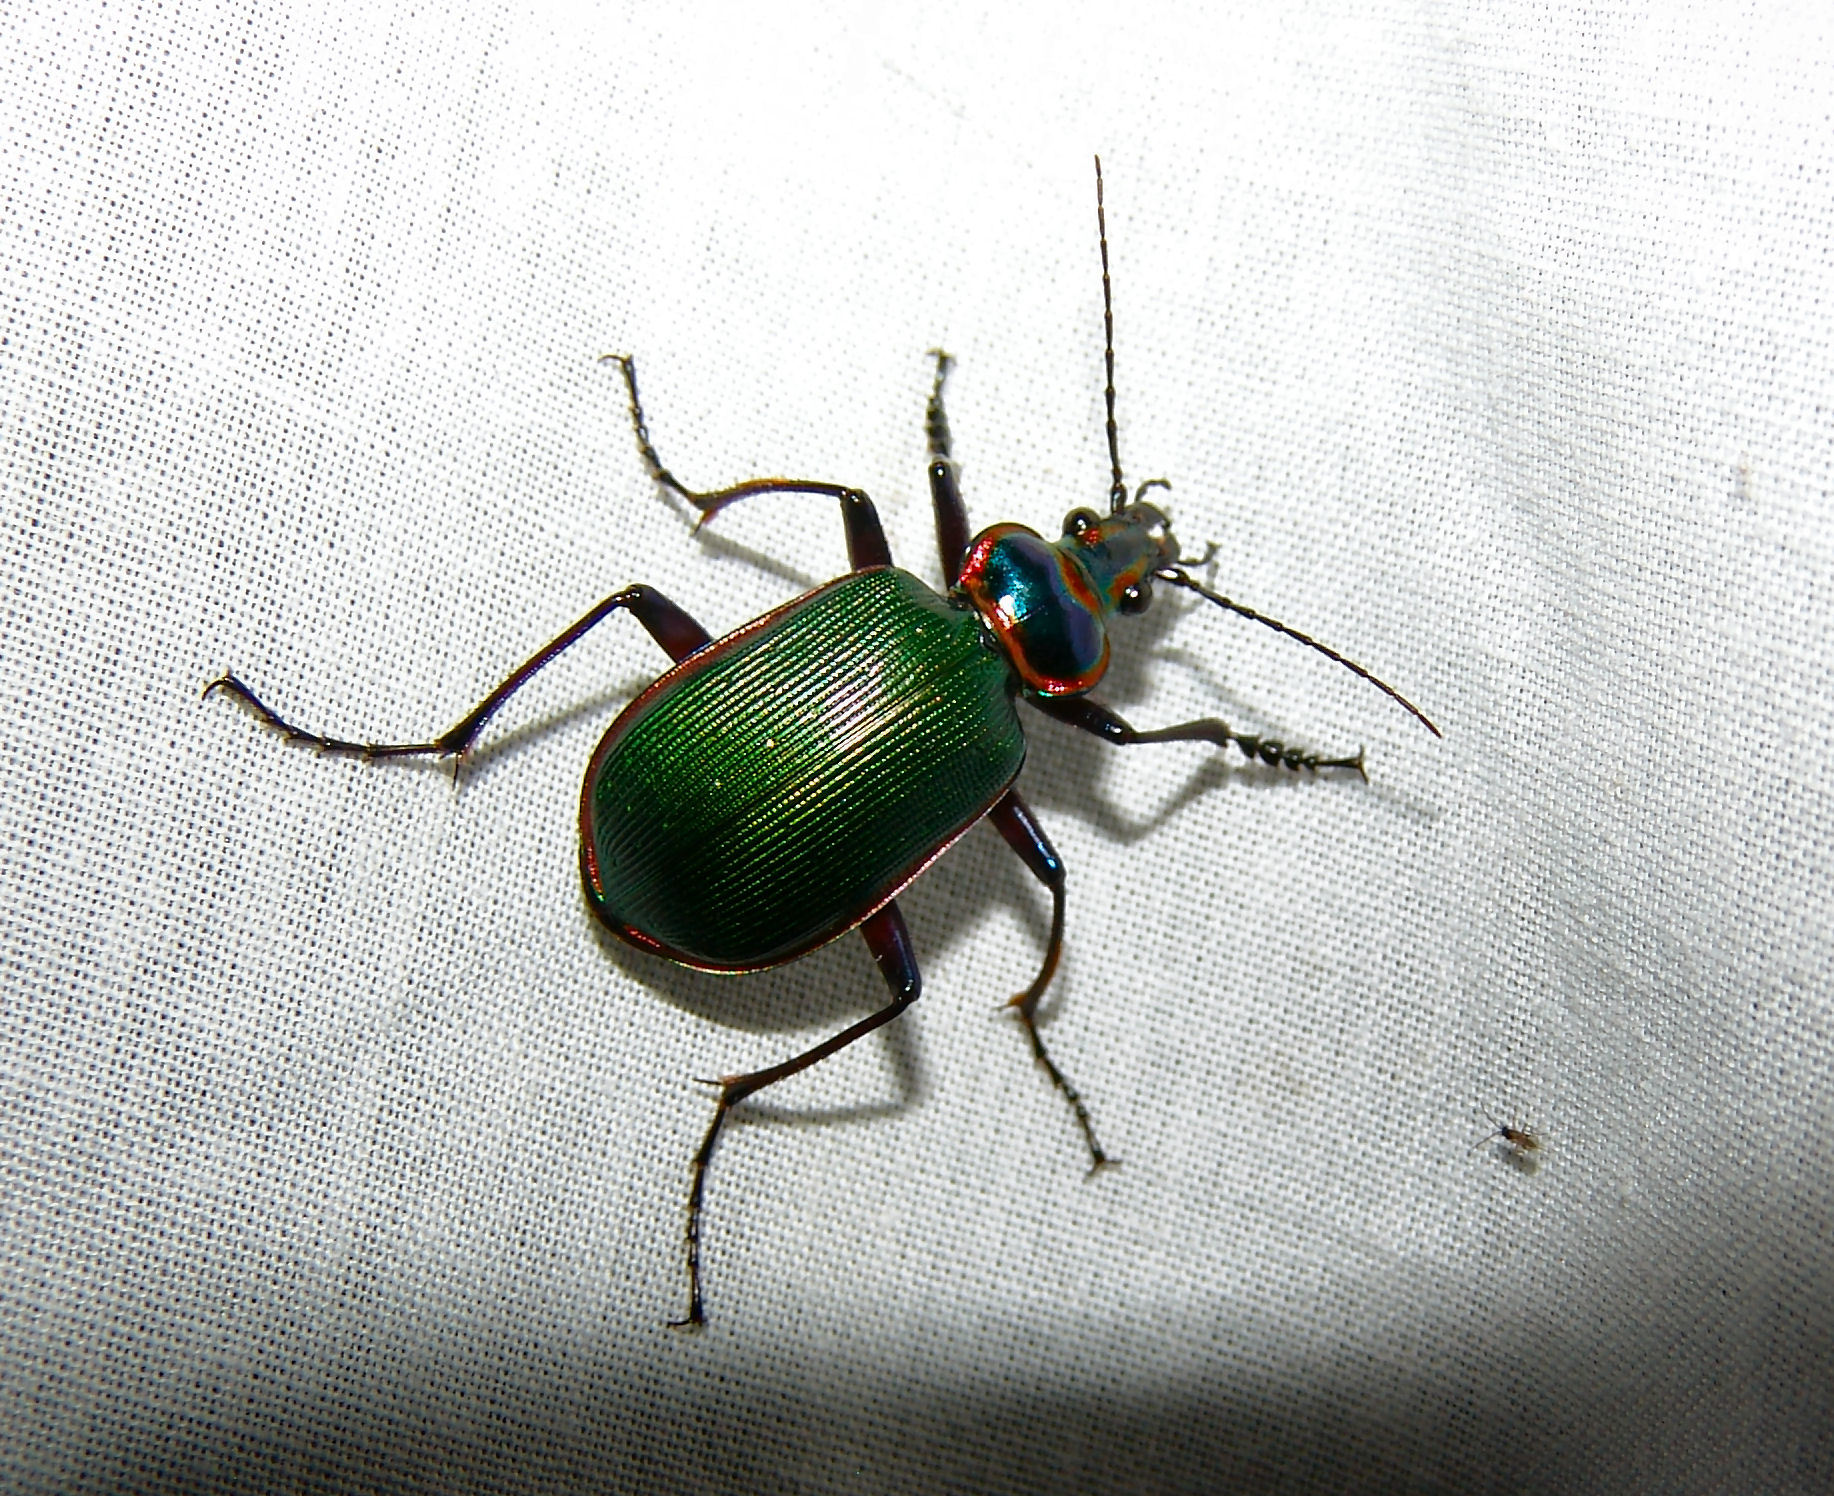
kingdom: Animalia
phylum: Arthropoda
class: Insecta
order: Coleoptera
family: Carabidae
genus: Calosoma
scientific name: Calosoma scrutator
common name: Fiery searcher beetle
